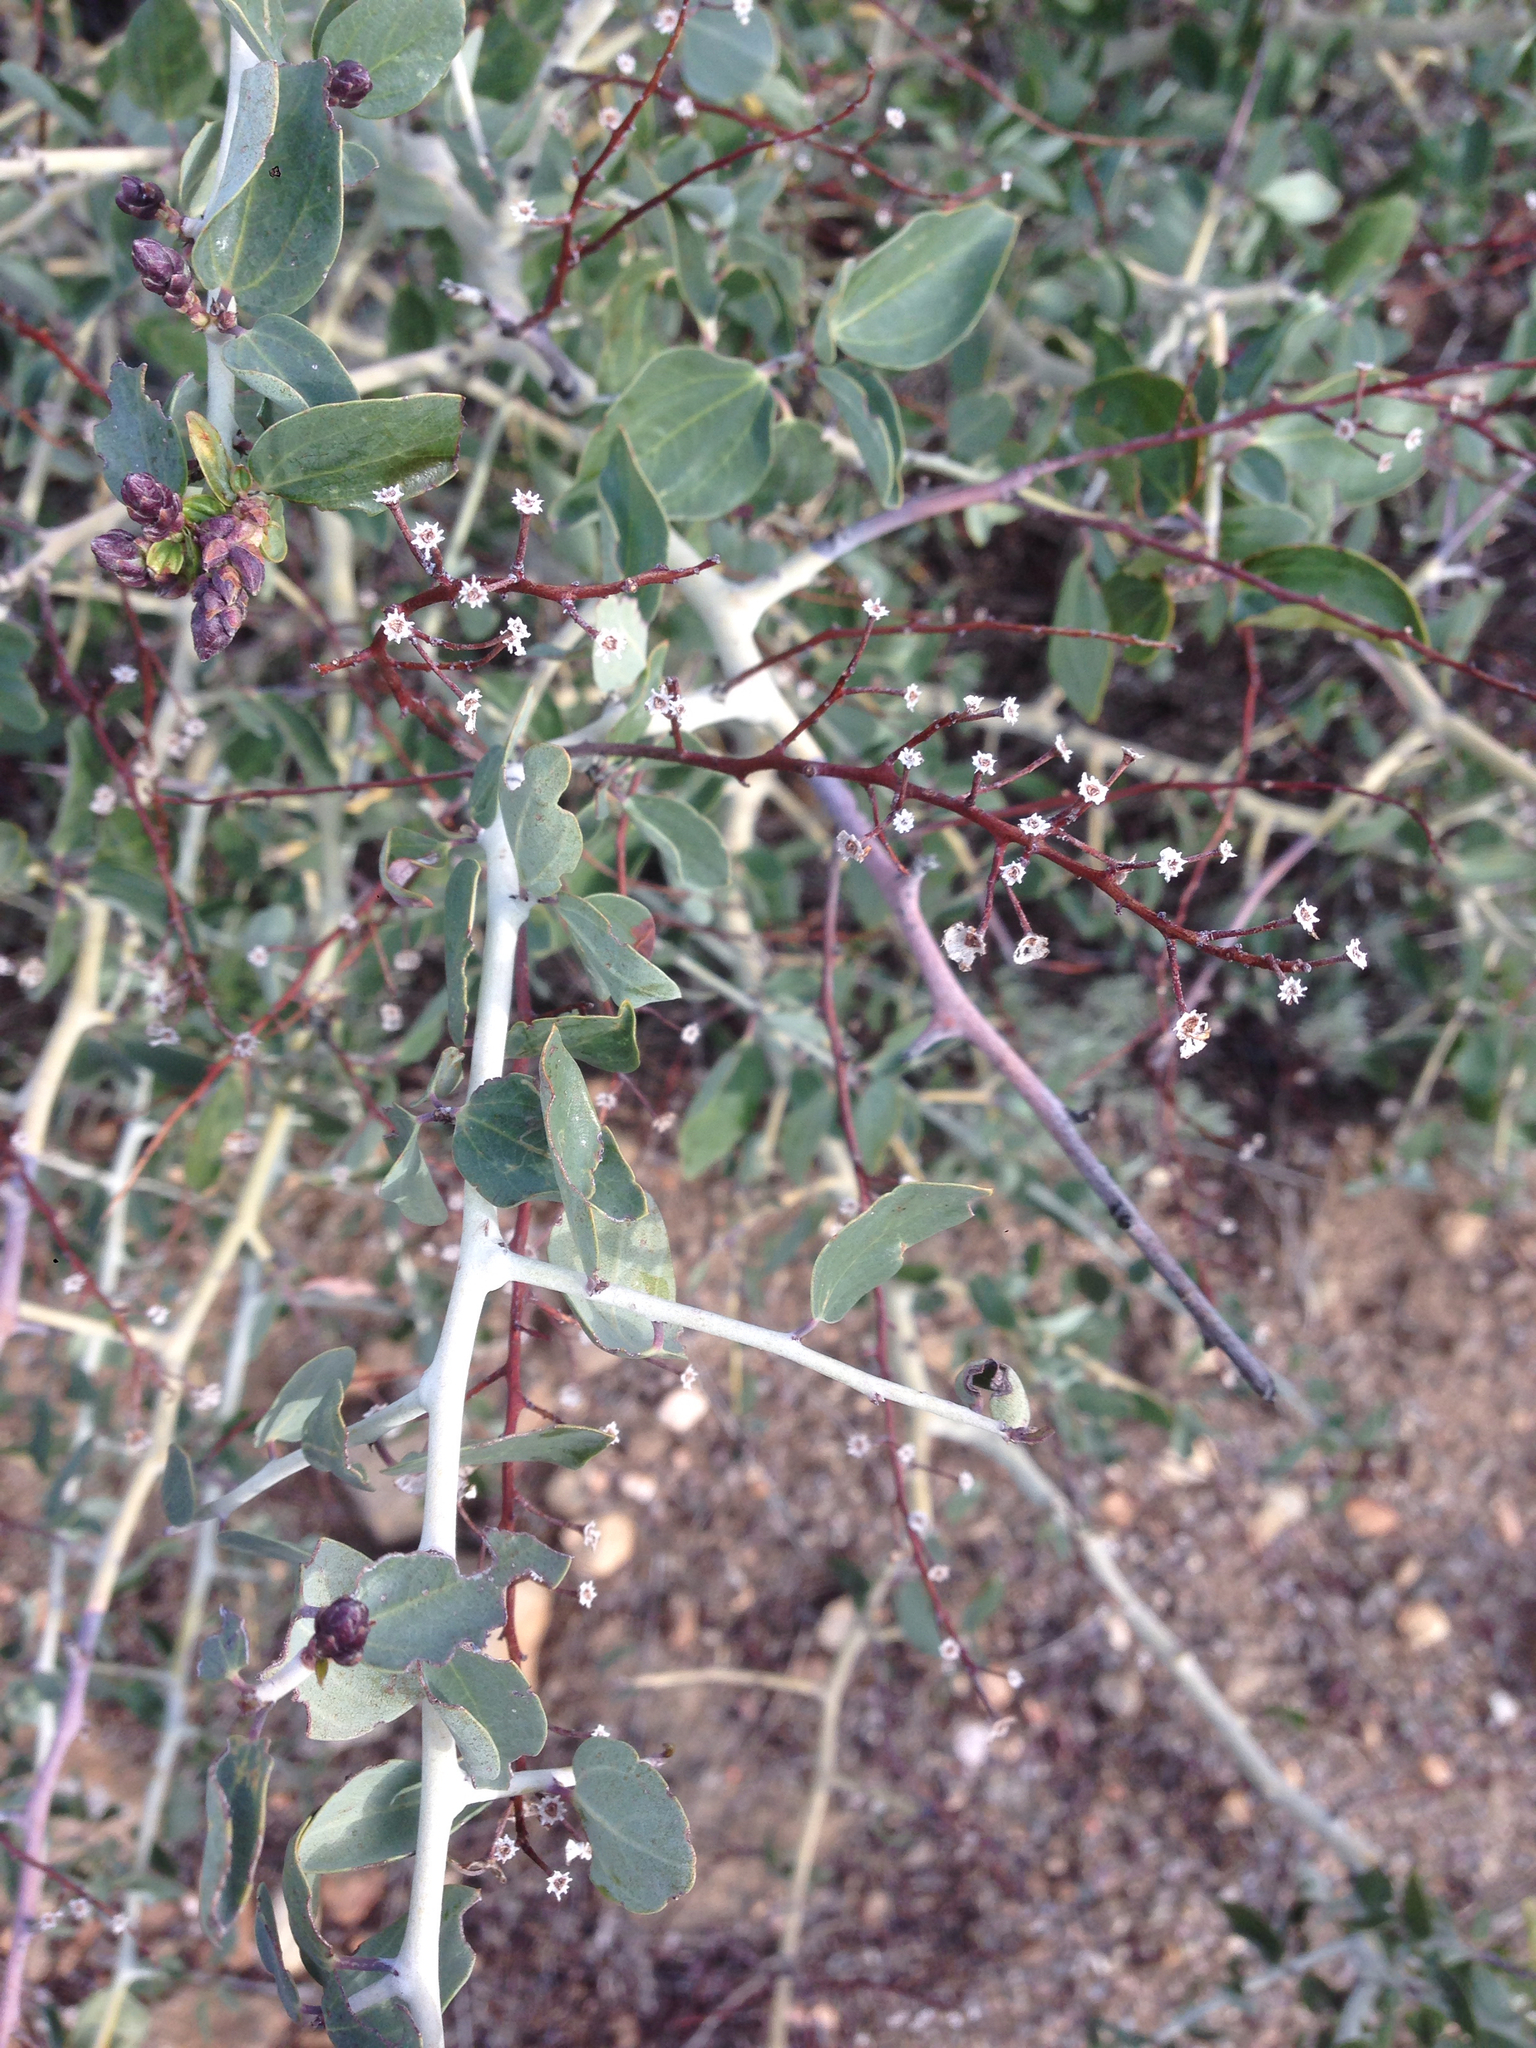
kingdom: Plantae
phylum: Tracheophyta
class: Magnoliopsida
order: Rosales
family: Rhamnaceae
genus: Ceanothus
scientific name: Ceanothus leucodermis
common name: Chaparral whitethorn
